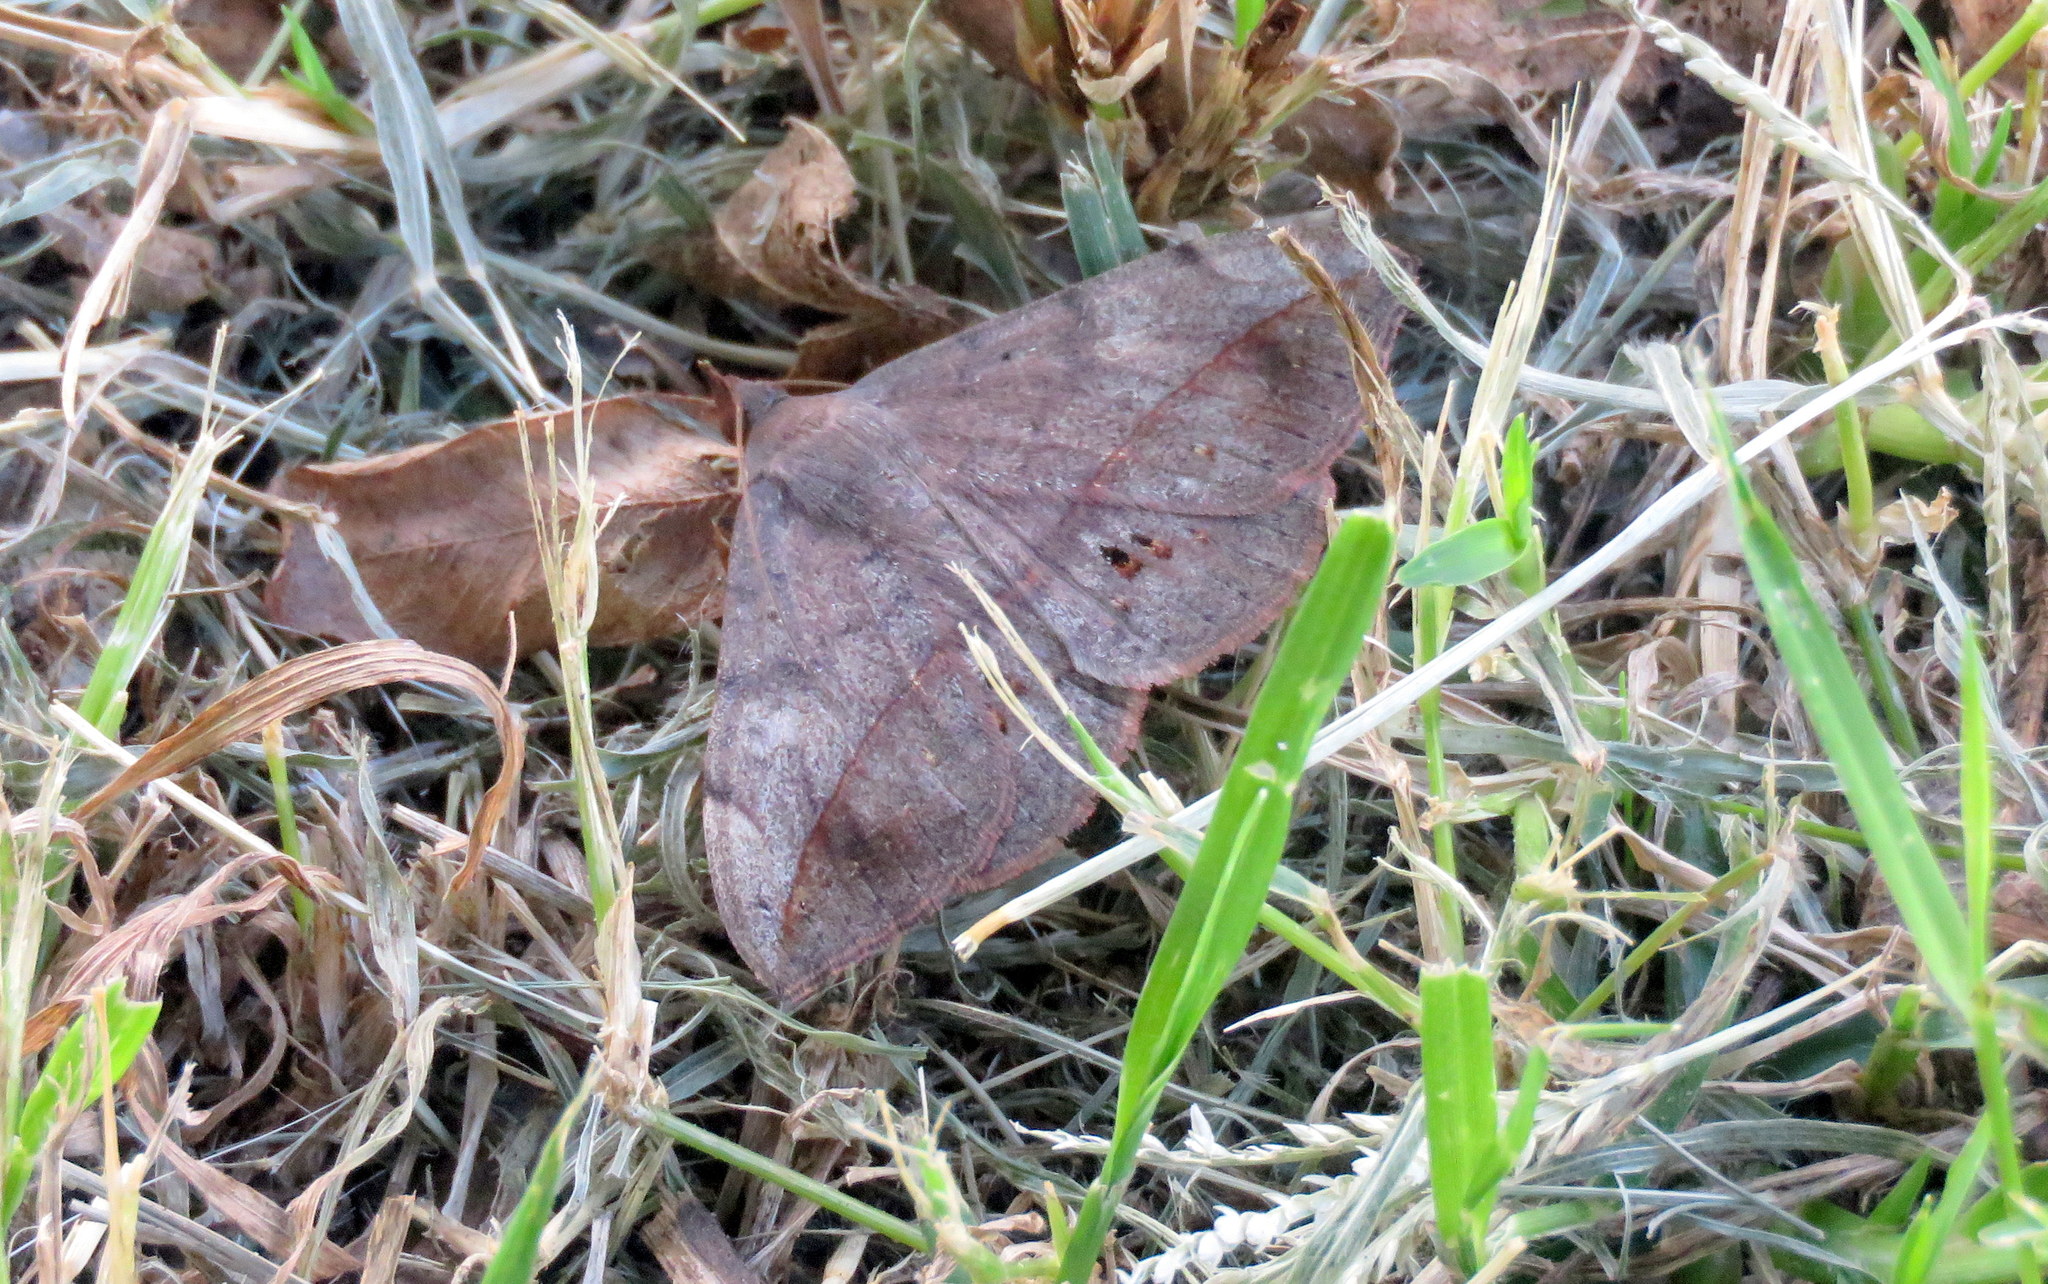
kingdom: Animalia
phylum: Arthropoda
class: Insecta
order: Lepidoptera
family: Erebidae
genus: Anticarsia
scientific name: Anticarsia gemmatalis
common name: Cutworm moth
